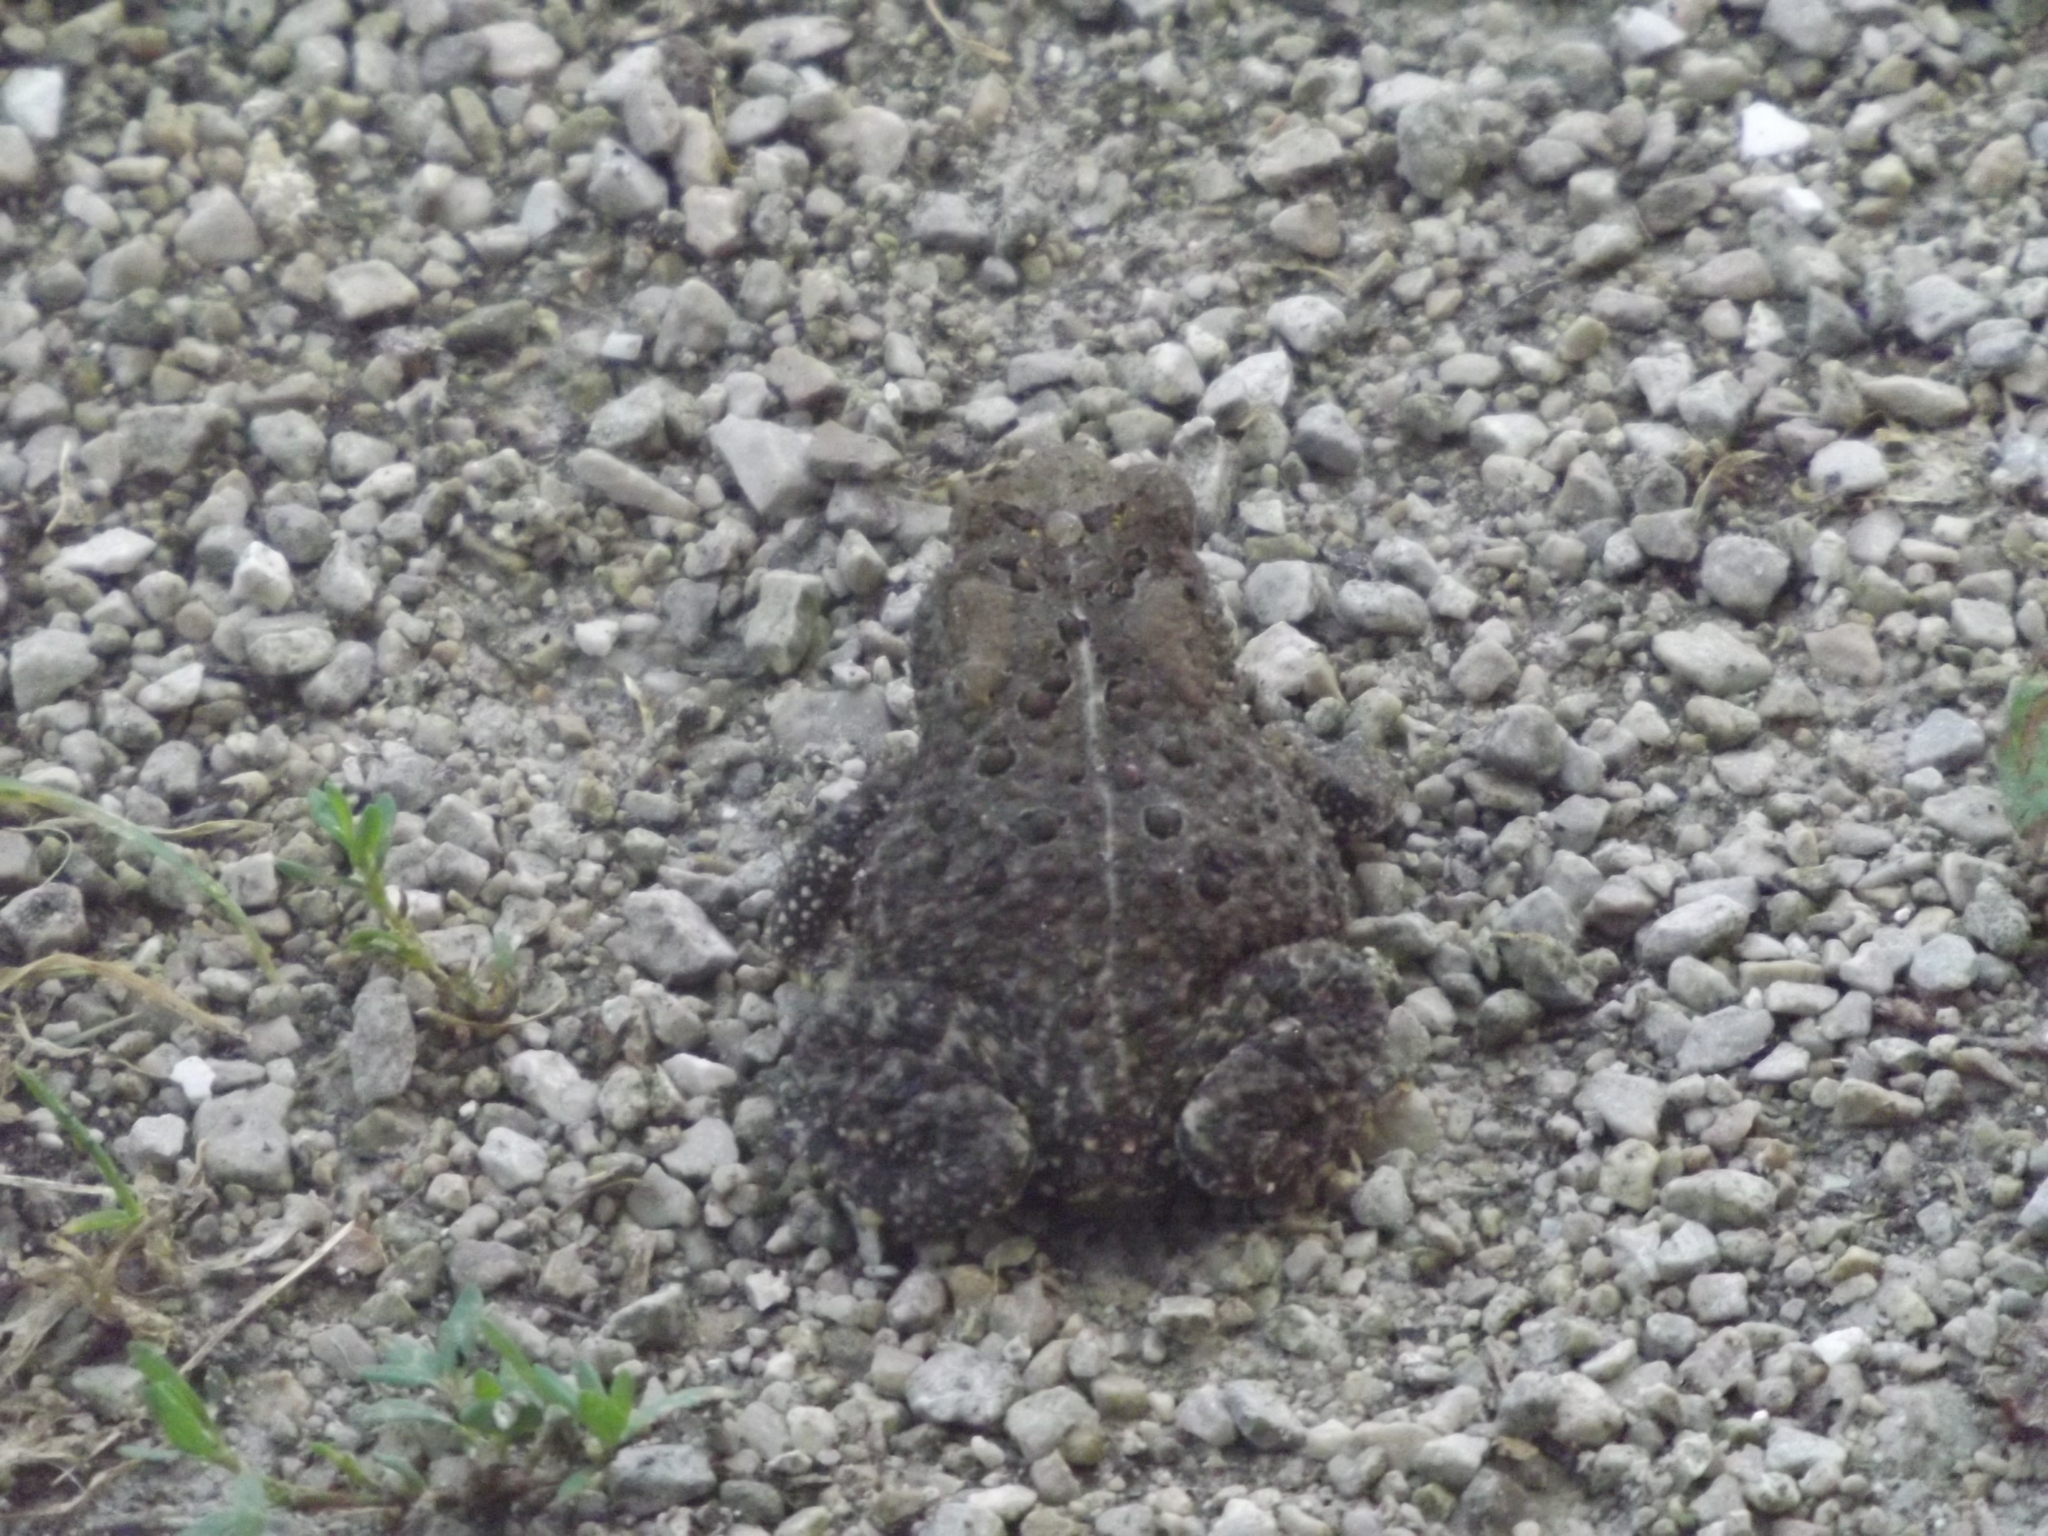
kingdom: Animalia
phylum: Chordata
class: Amphibia
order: Anura
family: Bufonidae
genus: Anaxyrus
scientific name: Anaxyrus americanus
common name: American toad
